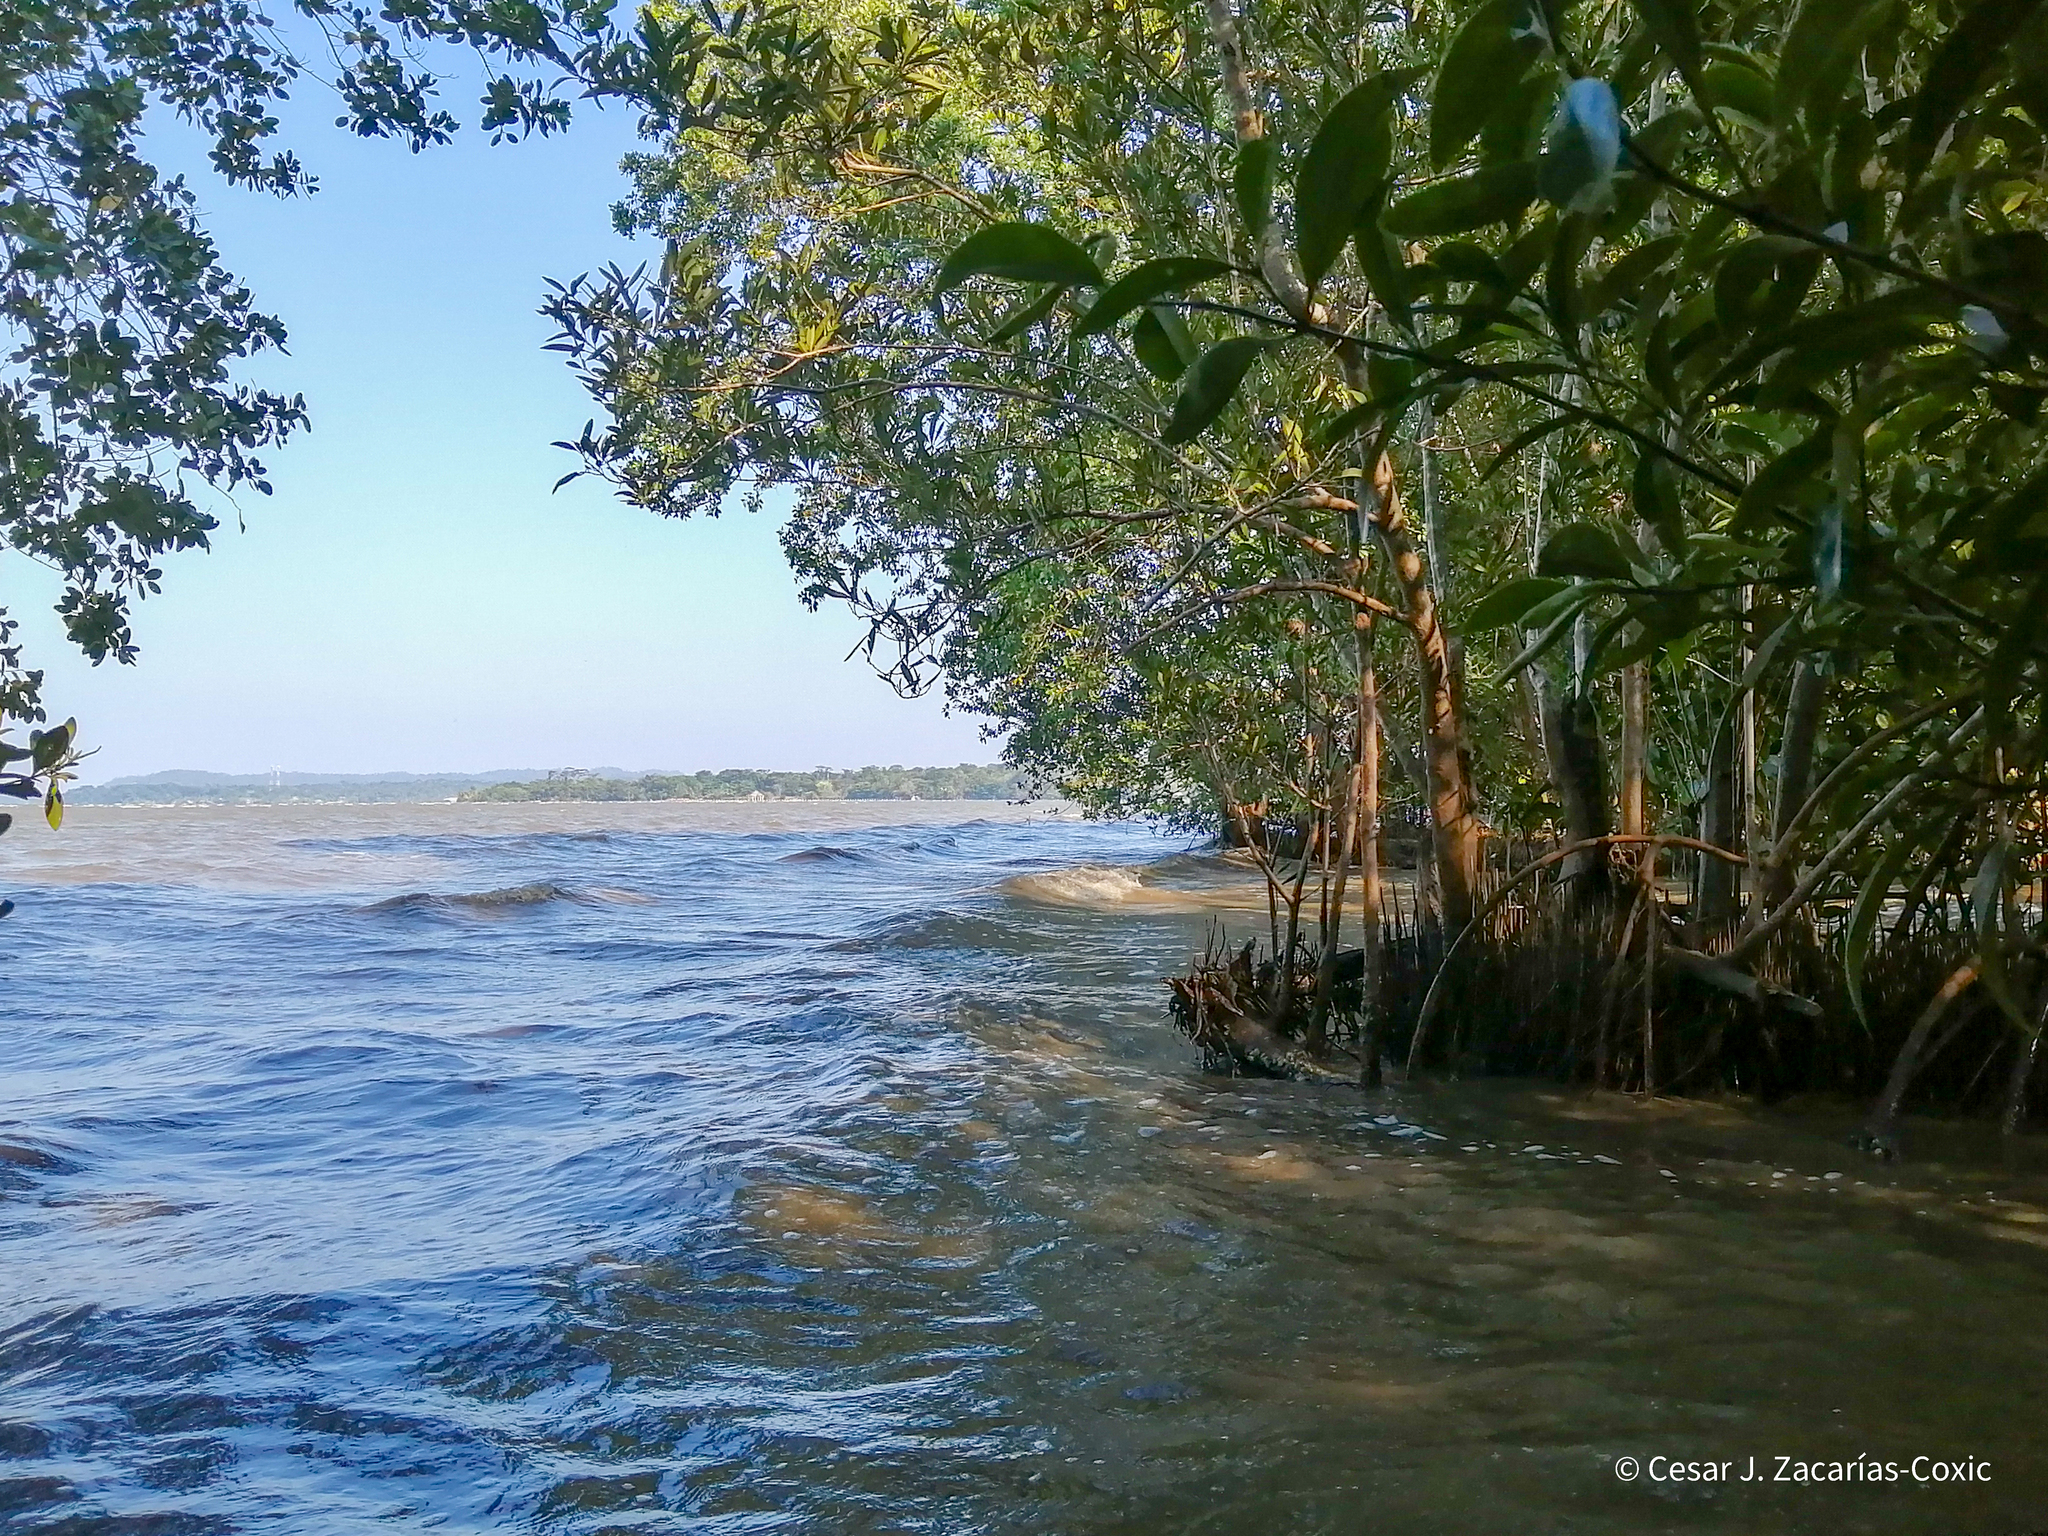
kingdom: Plantae
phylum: Tracheophyta
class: Magnoliopsida
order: Lamiales
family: Acanthaceae
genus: Avicennia
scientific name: Avicennia germinans
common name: Black mangrove
